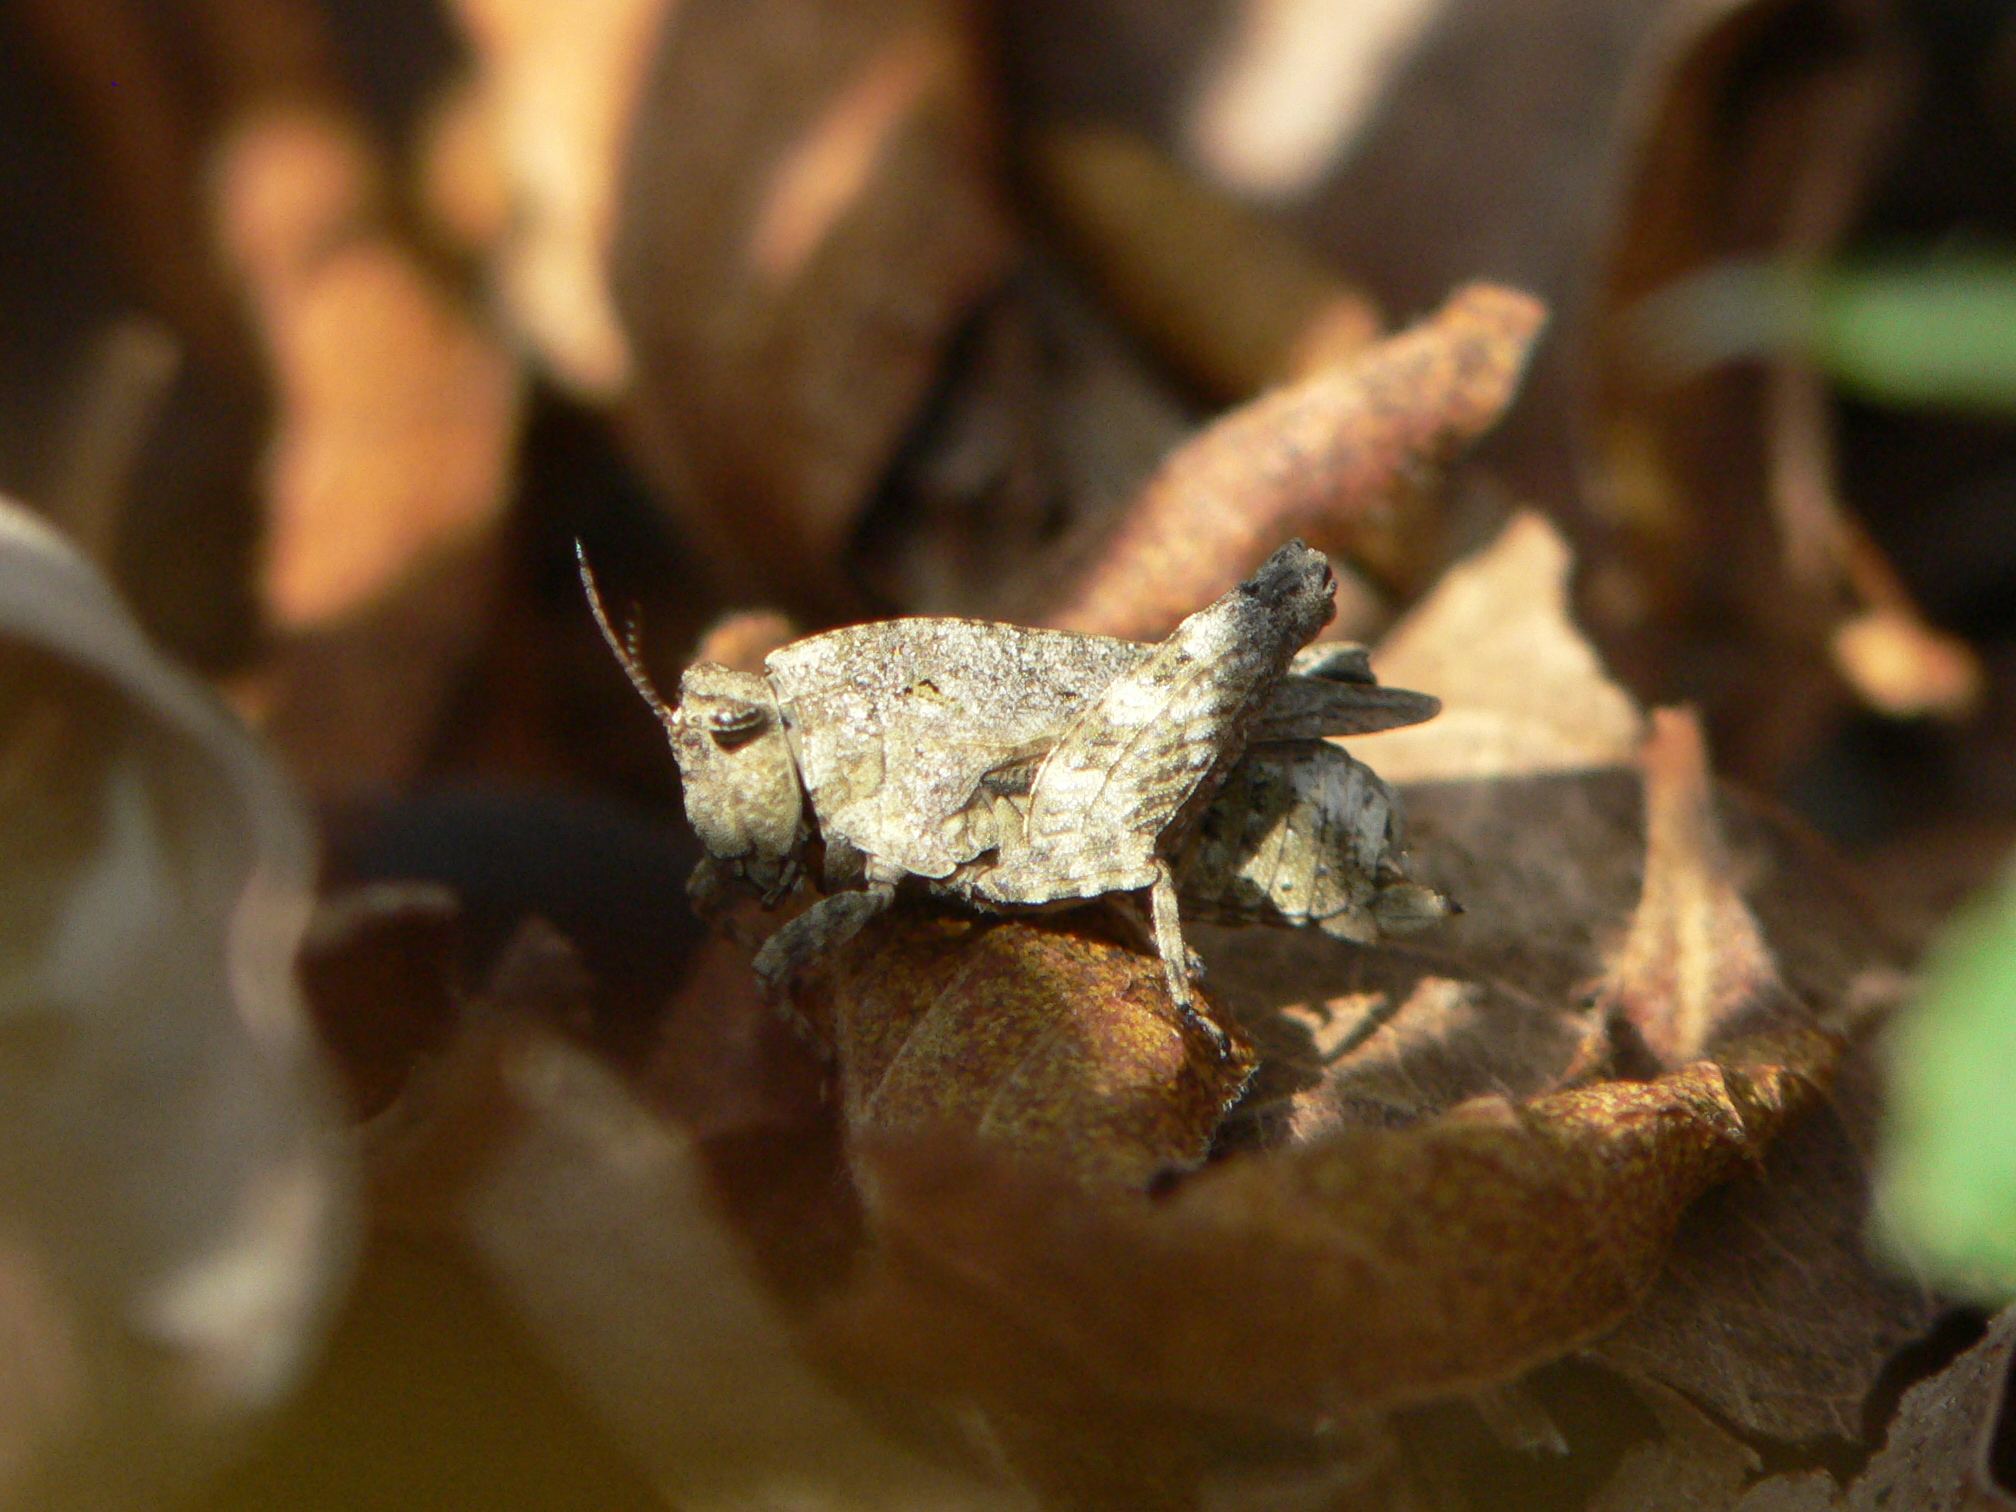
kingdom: Animalia
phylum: Arthropoda
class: Insecta
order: Orthoptera
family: Tetrigidae
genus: Nomotettix
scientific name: Nomotettix cristatus
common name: Crested grouse locust
